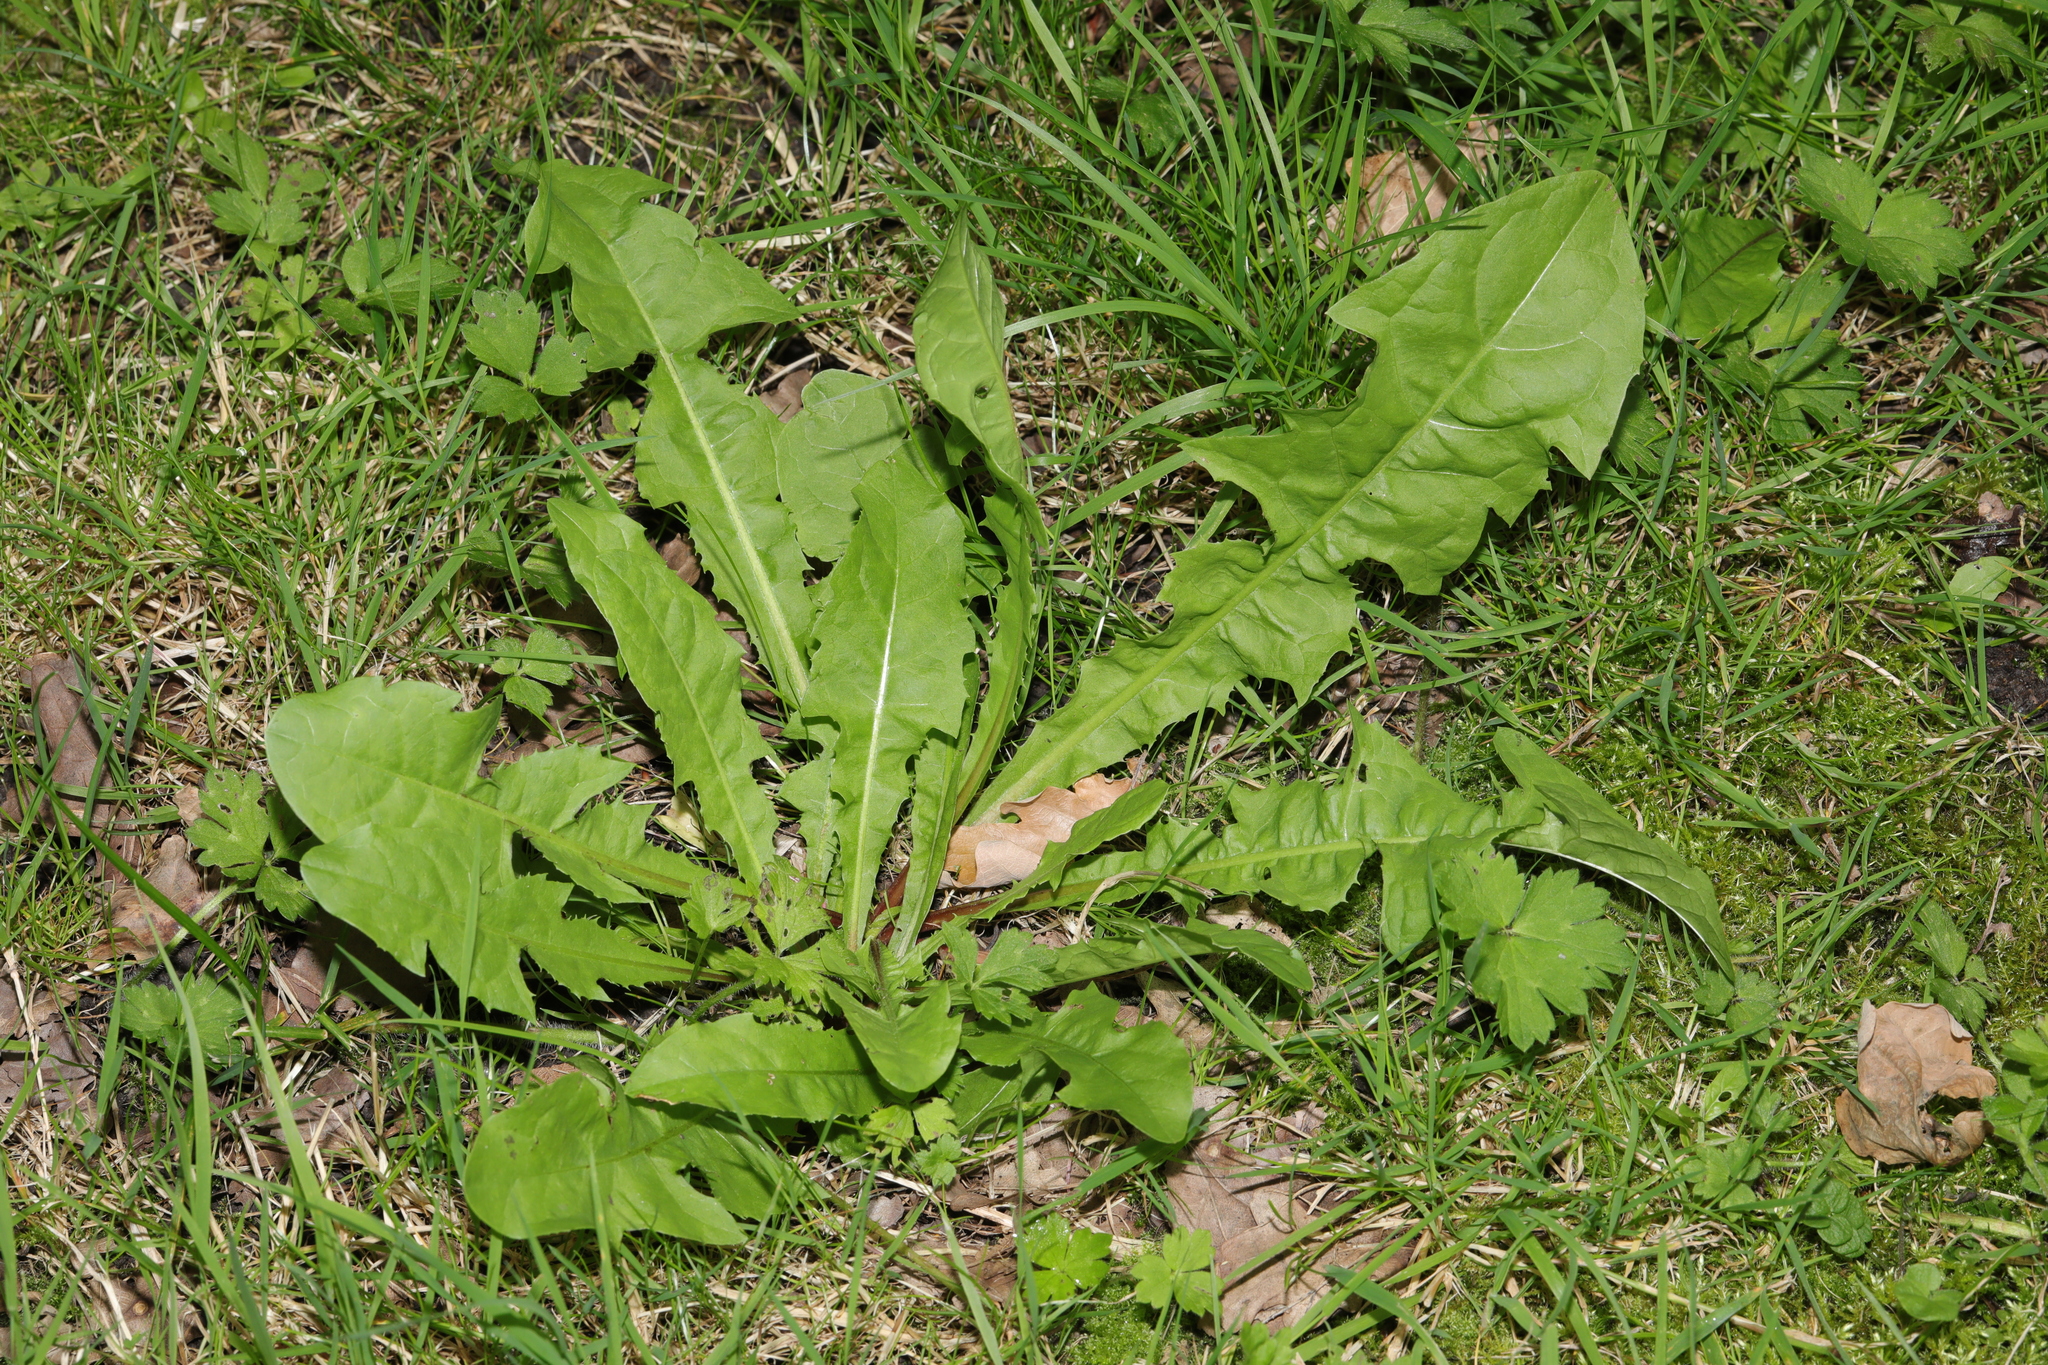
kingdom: Plantae
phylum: Tracheophyta
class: Magnoliopsida
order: Asterales
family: Asteraceae
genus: Taraxacum
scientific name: Taraxacum officinale
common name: Common dandelion
